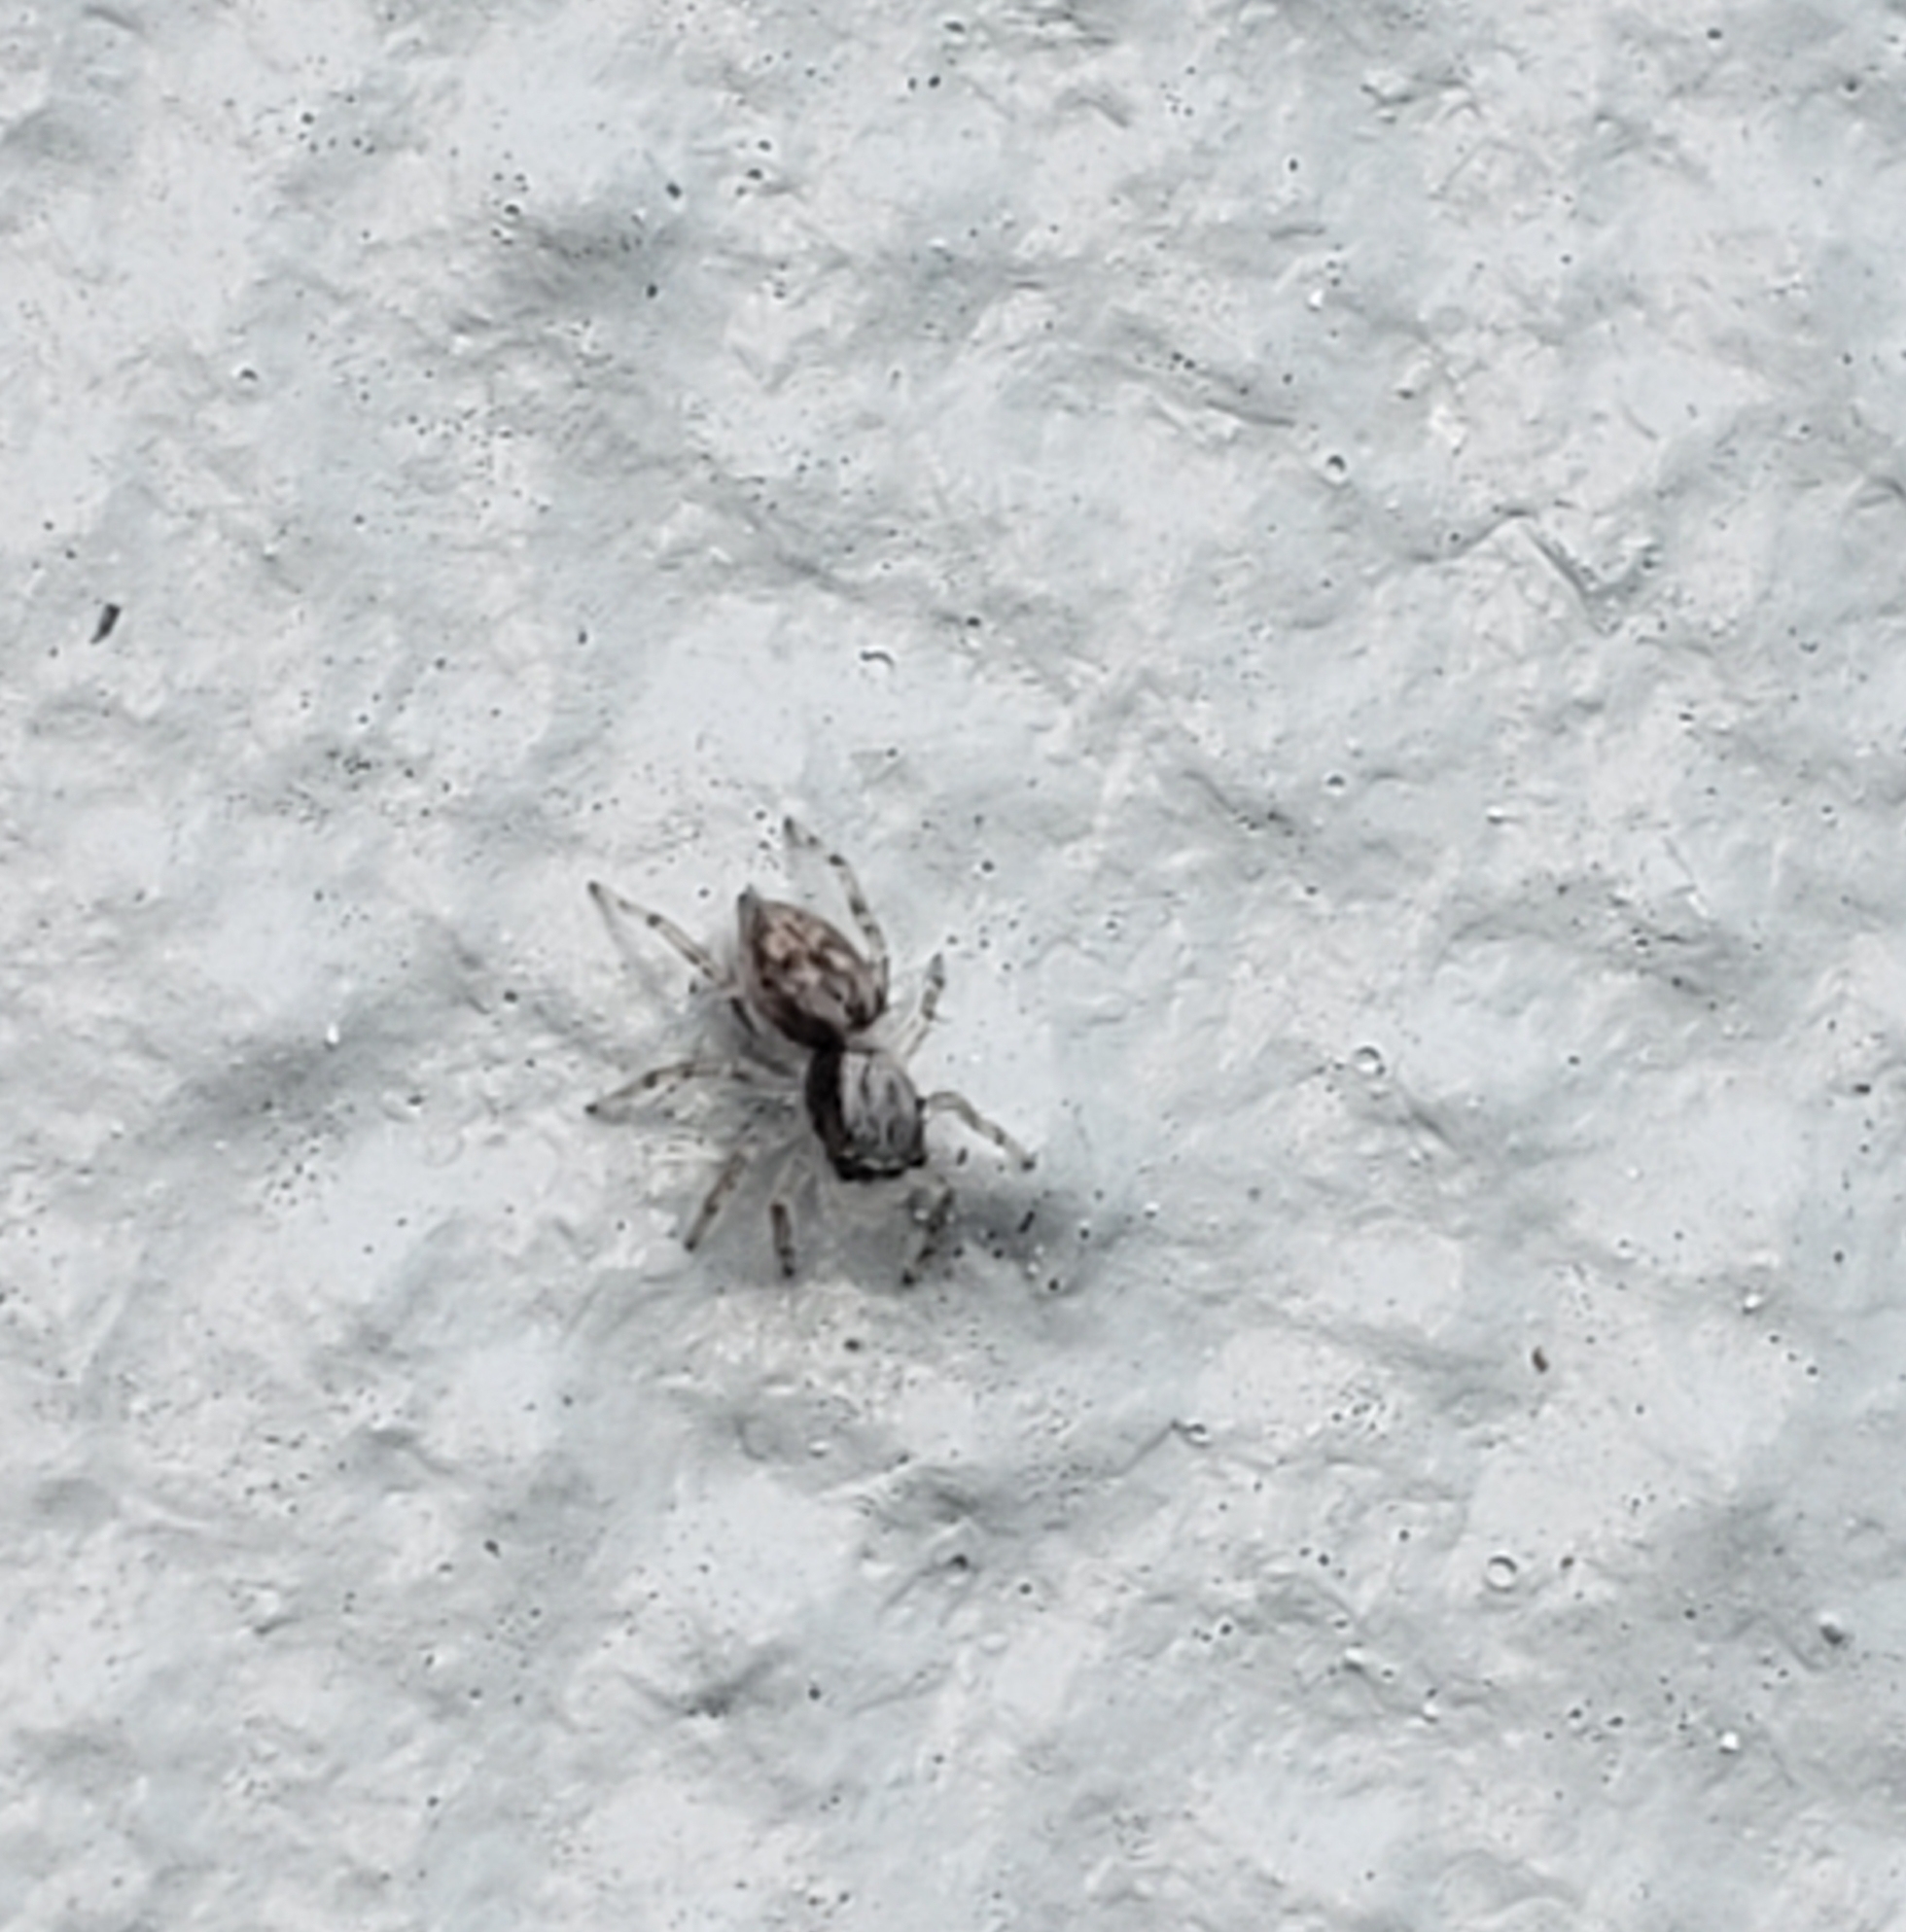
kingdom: Animalia
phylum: Arthropoda
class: Arachnida
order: Araneae
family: Salticidae
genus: Menemerus
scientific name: Menemerus bivittatus
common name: Gray wall jumper
